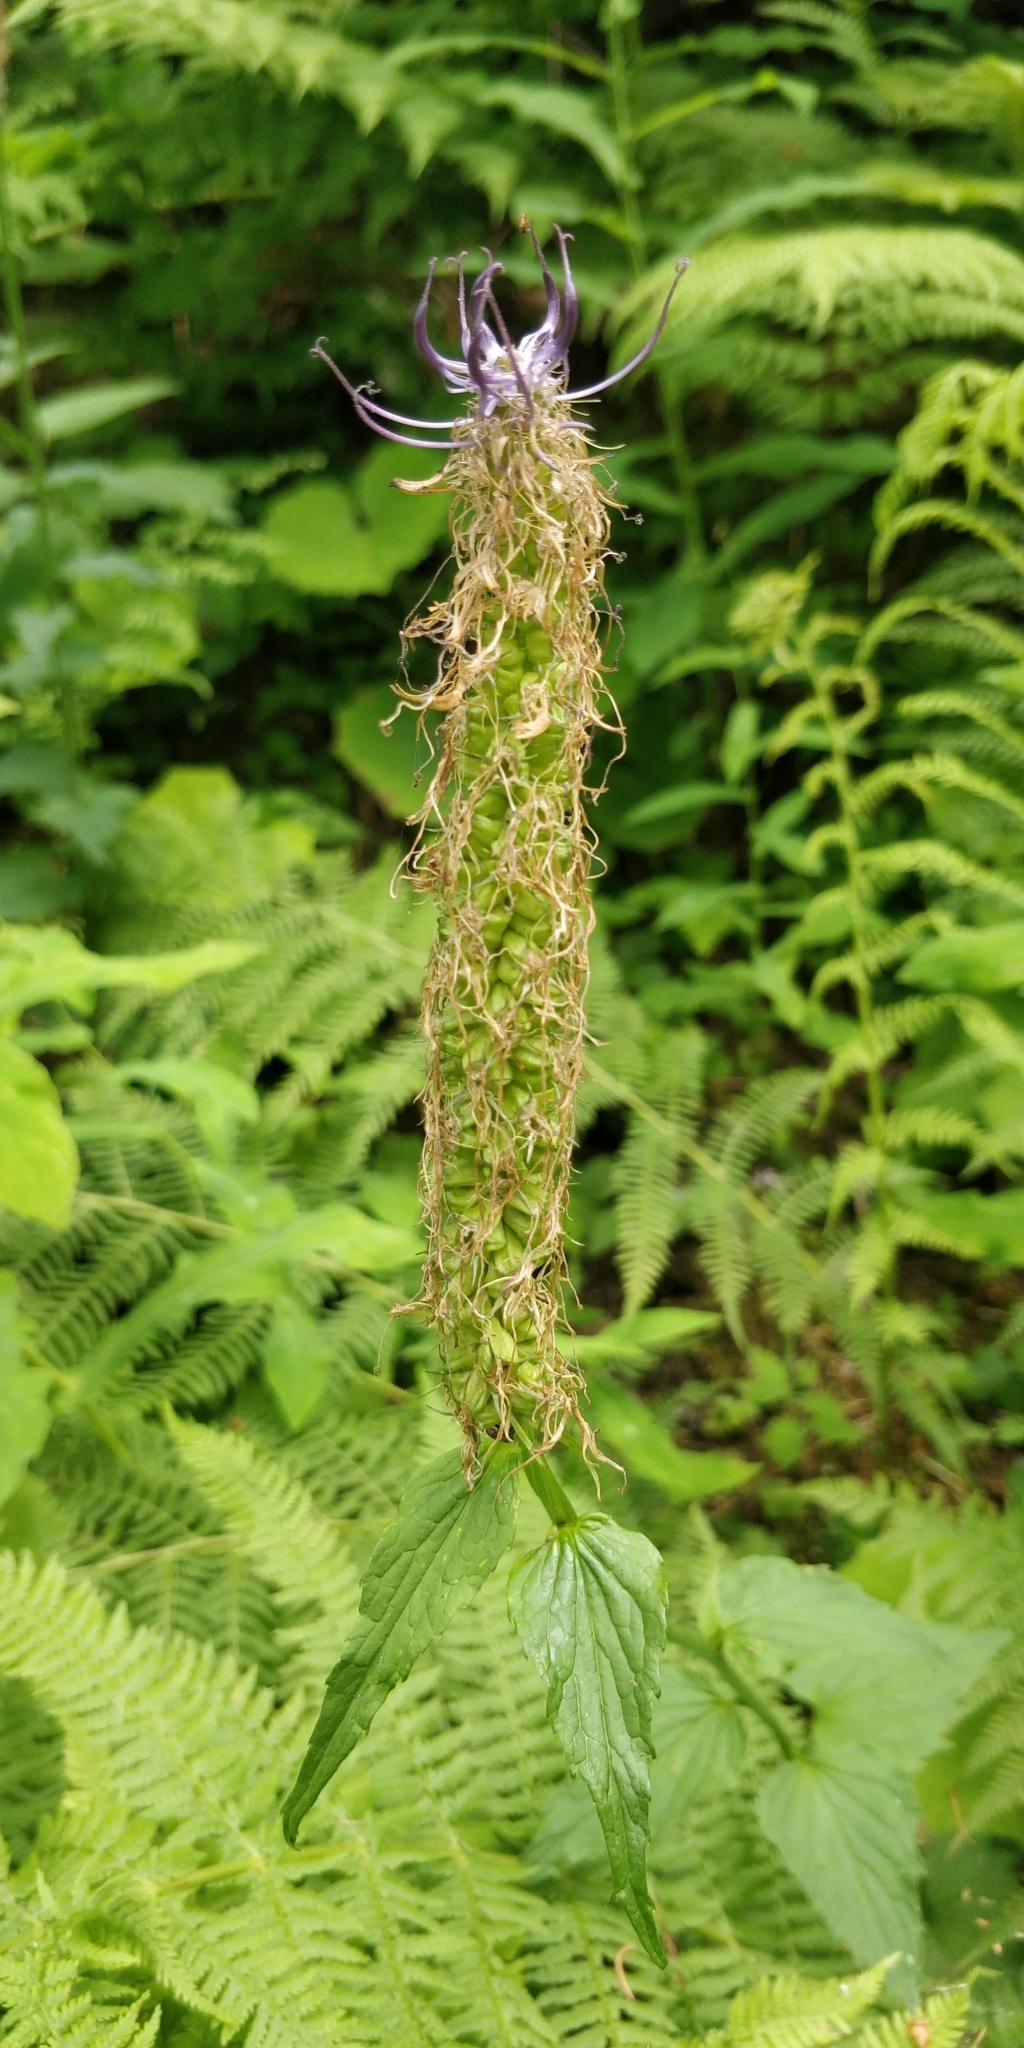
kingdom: Plantae
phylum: Tracheophyta
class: Magnoliopsida
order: Asterales
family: Campanulaceae
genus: Phyteuma
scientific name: Phyteuma ovatum
